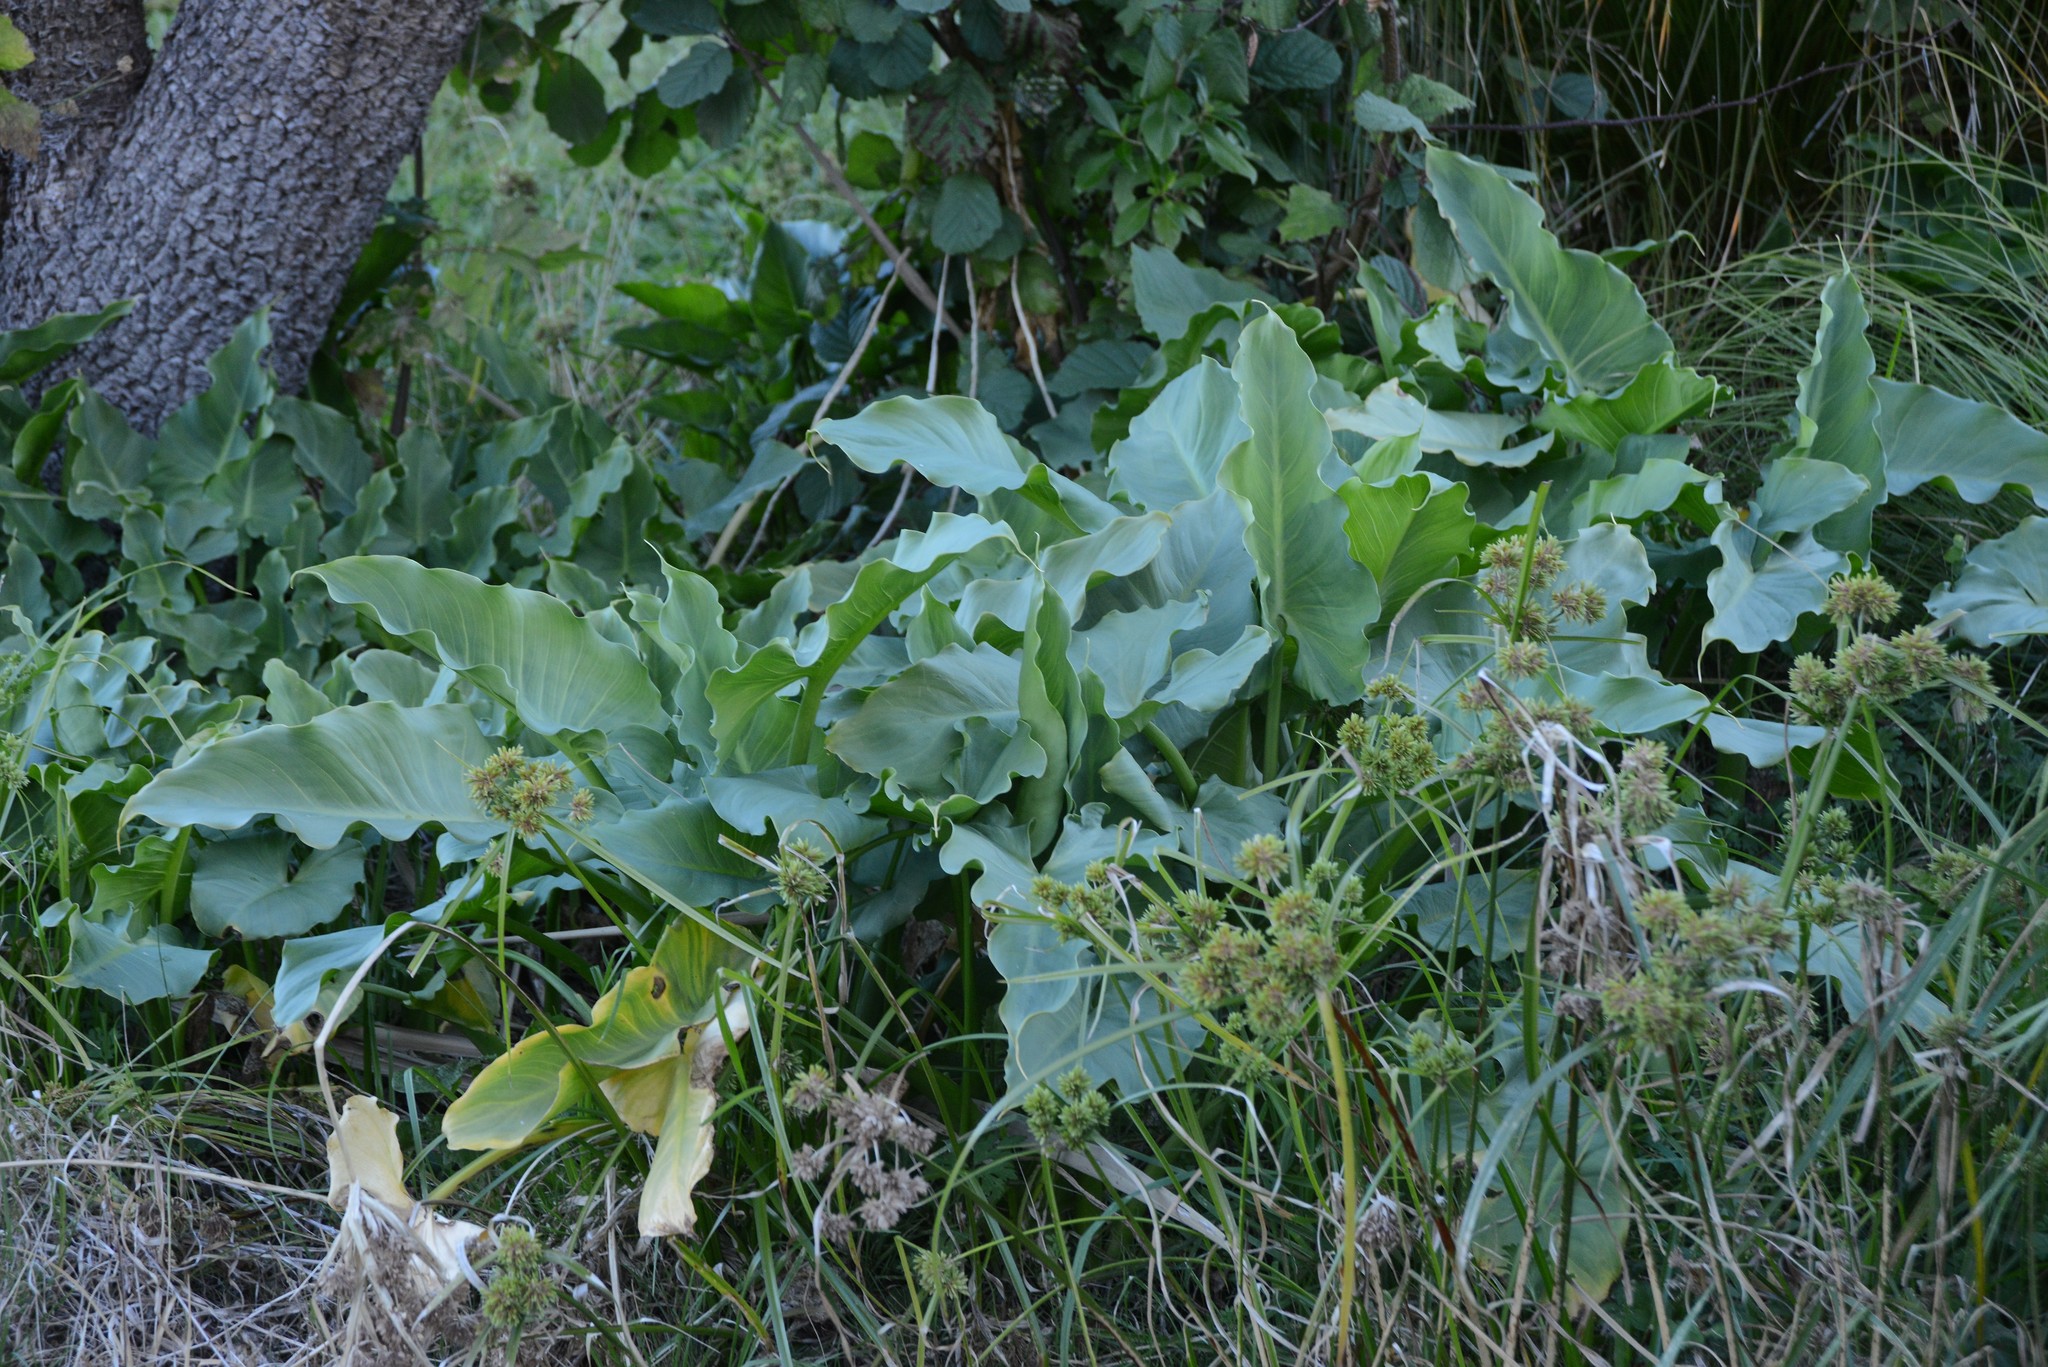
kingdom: Plantae
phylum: Tracheophyta
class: Liliopsida
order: Alismatales
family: Araceae
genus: Zantedeschia
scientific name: Zantedeschia aethiopica
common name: Altar-lily
